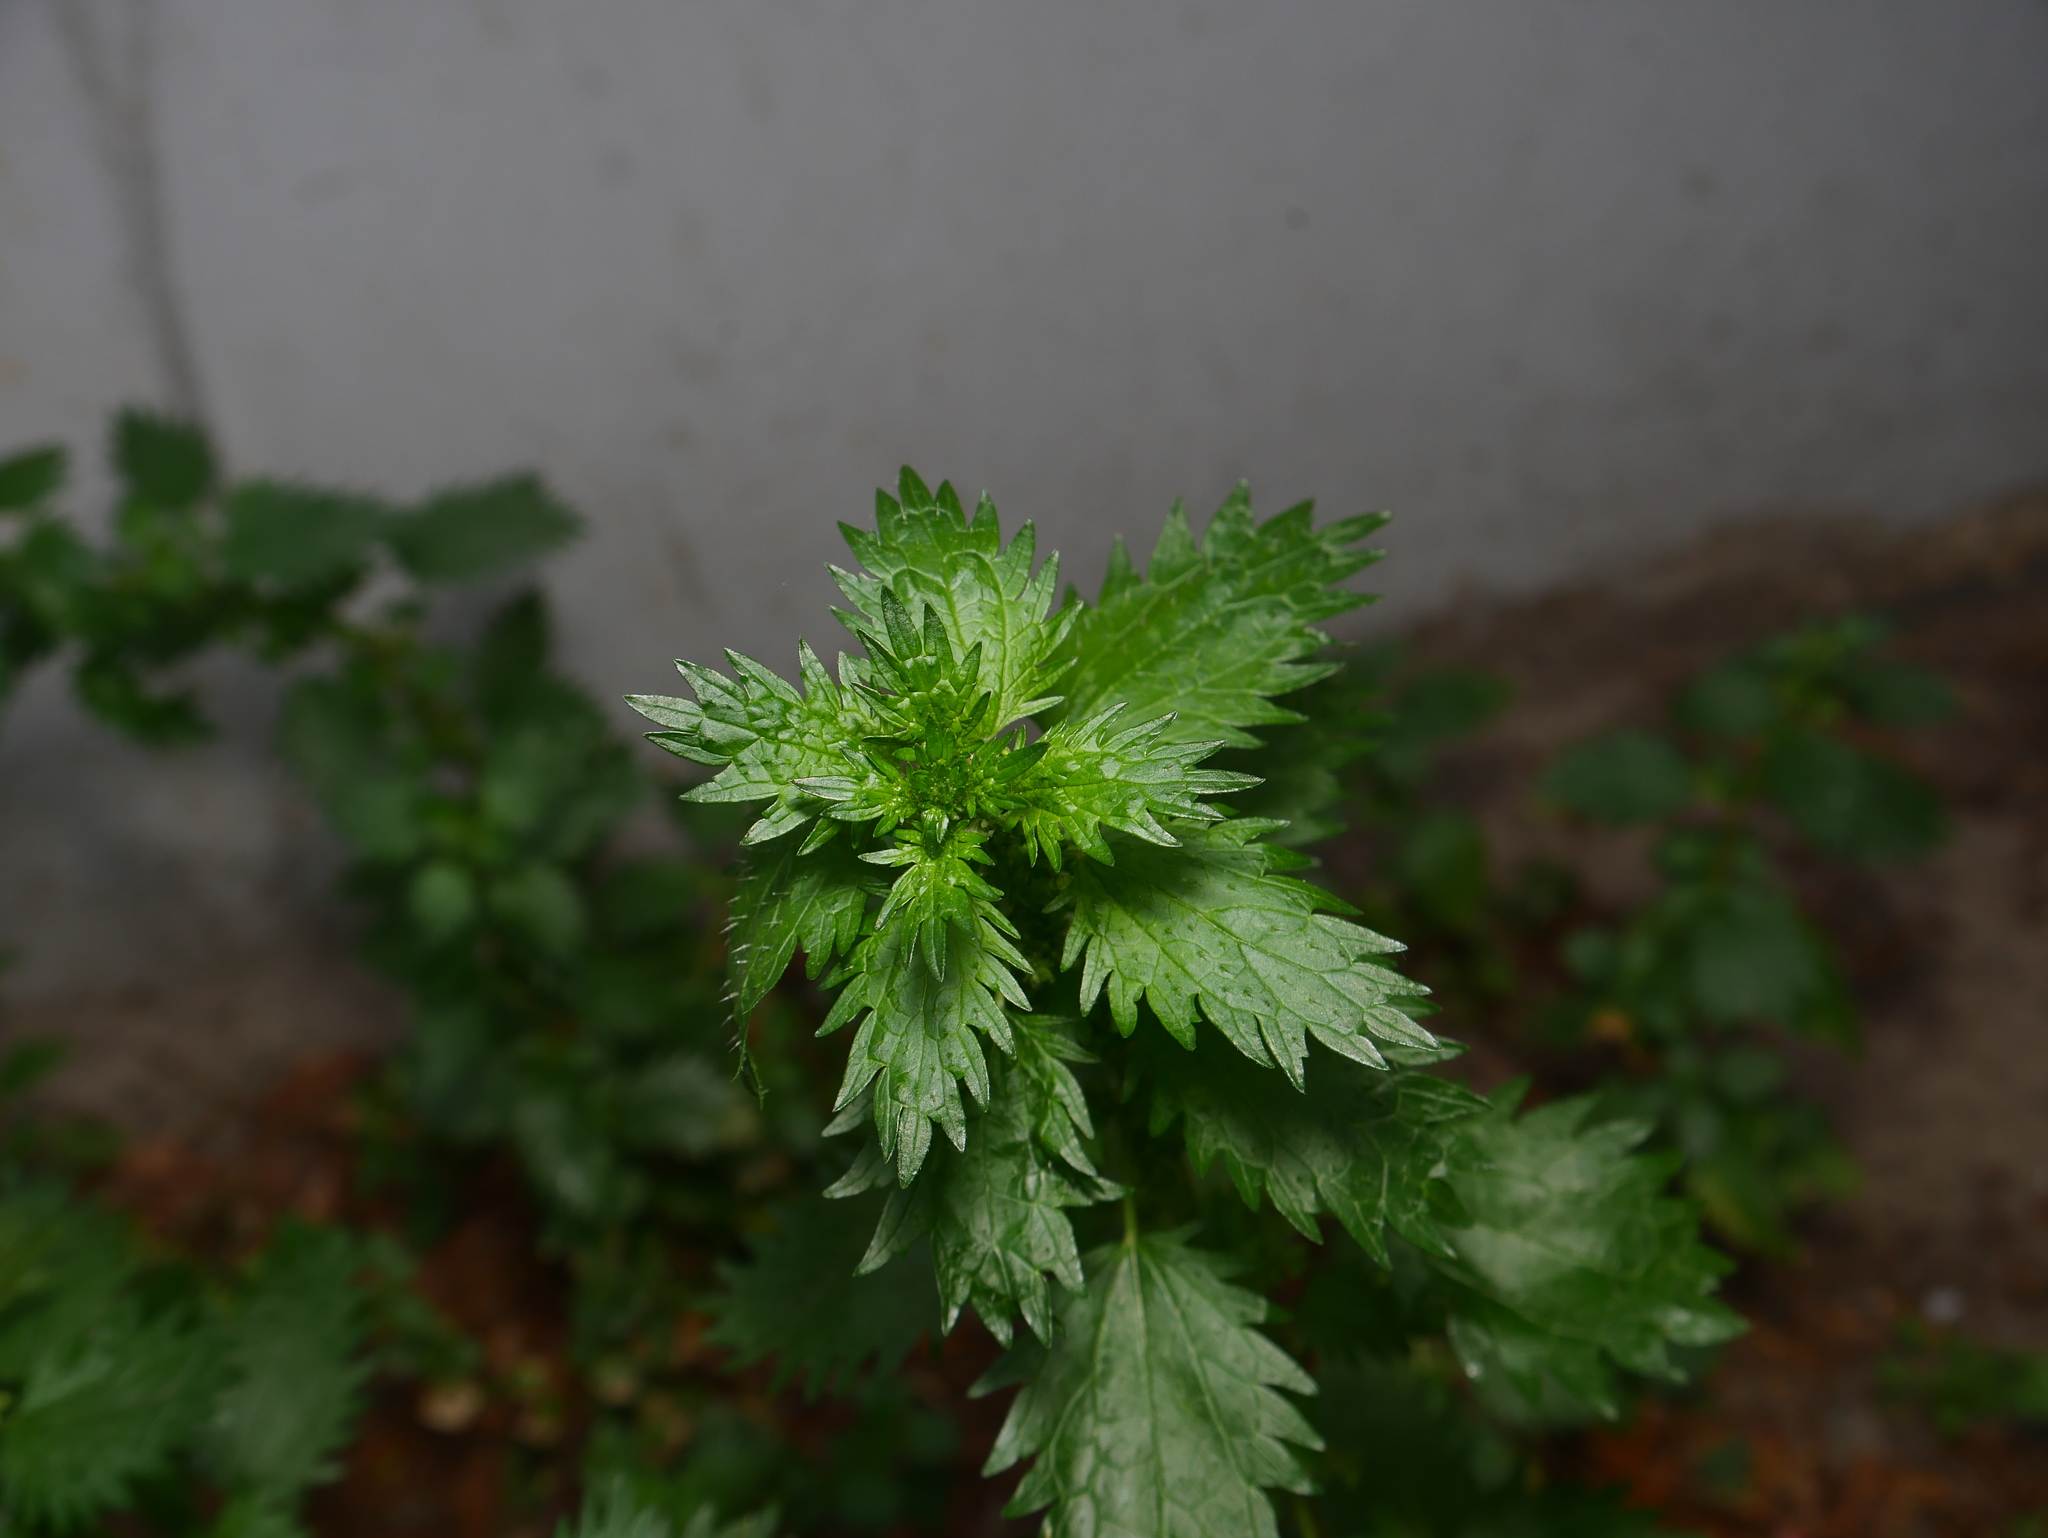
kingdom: Plantae
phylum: Tracheophyta
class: Magnoliopsida
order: Rosales
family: Urticaceae
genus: Urtica
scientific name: Urtica urens
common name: Dwarf nettle
